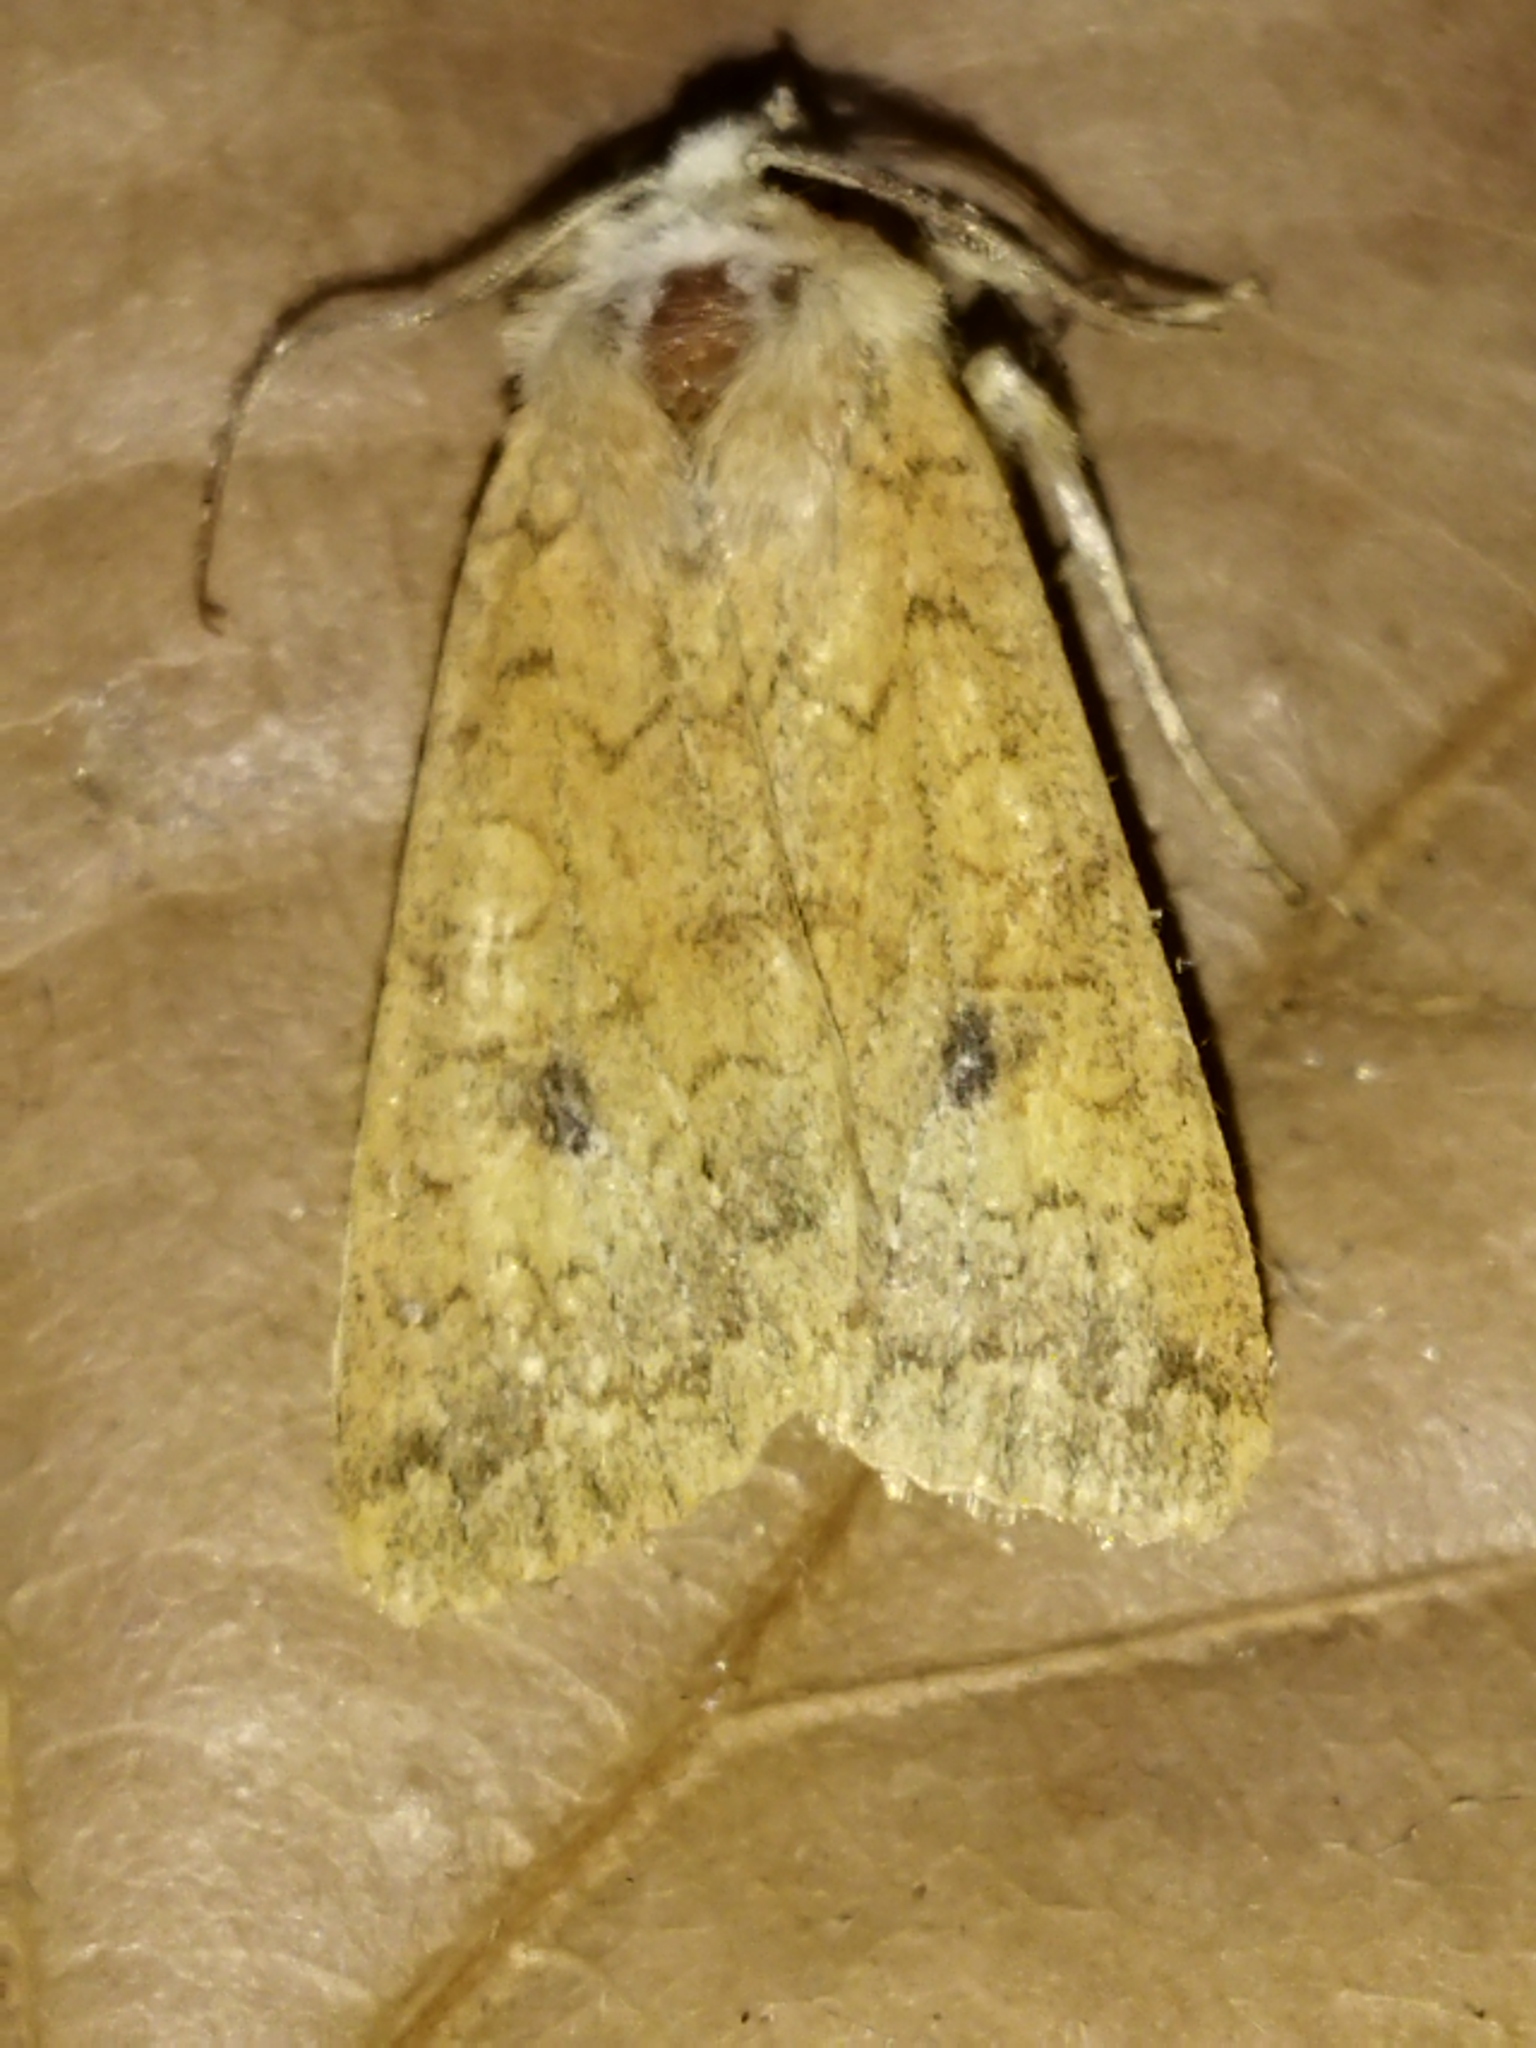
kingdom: Animalia
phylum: Arthropoda
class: Insecta
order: Lepidoptera
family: Noctuidae
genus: Sunira
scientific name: Sunira circellaris
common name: Brick
